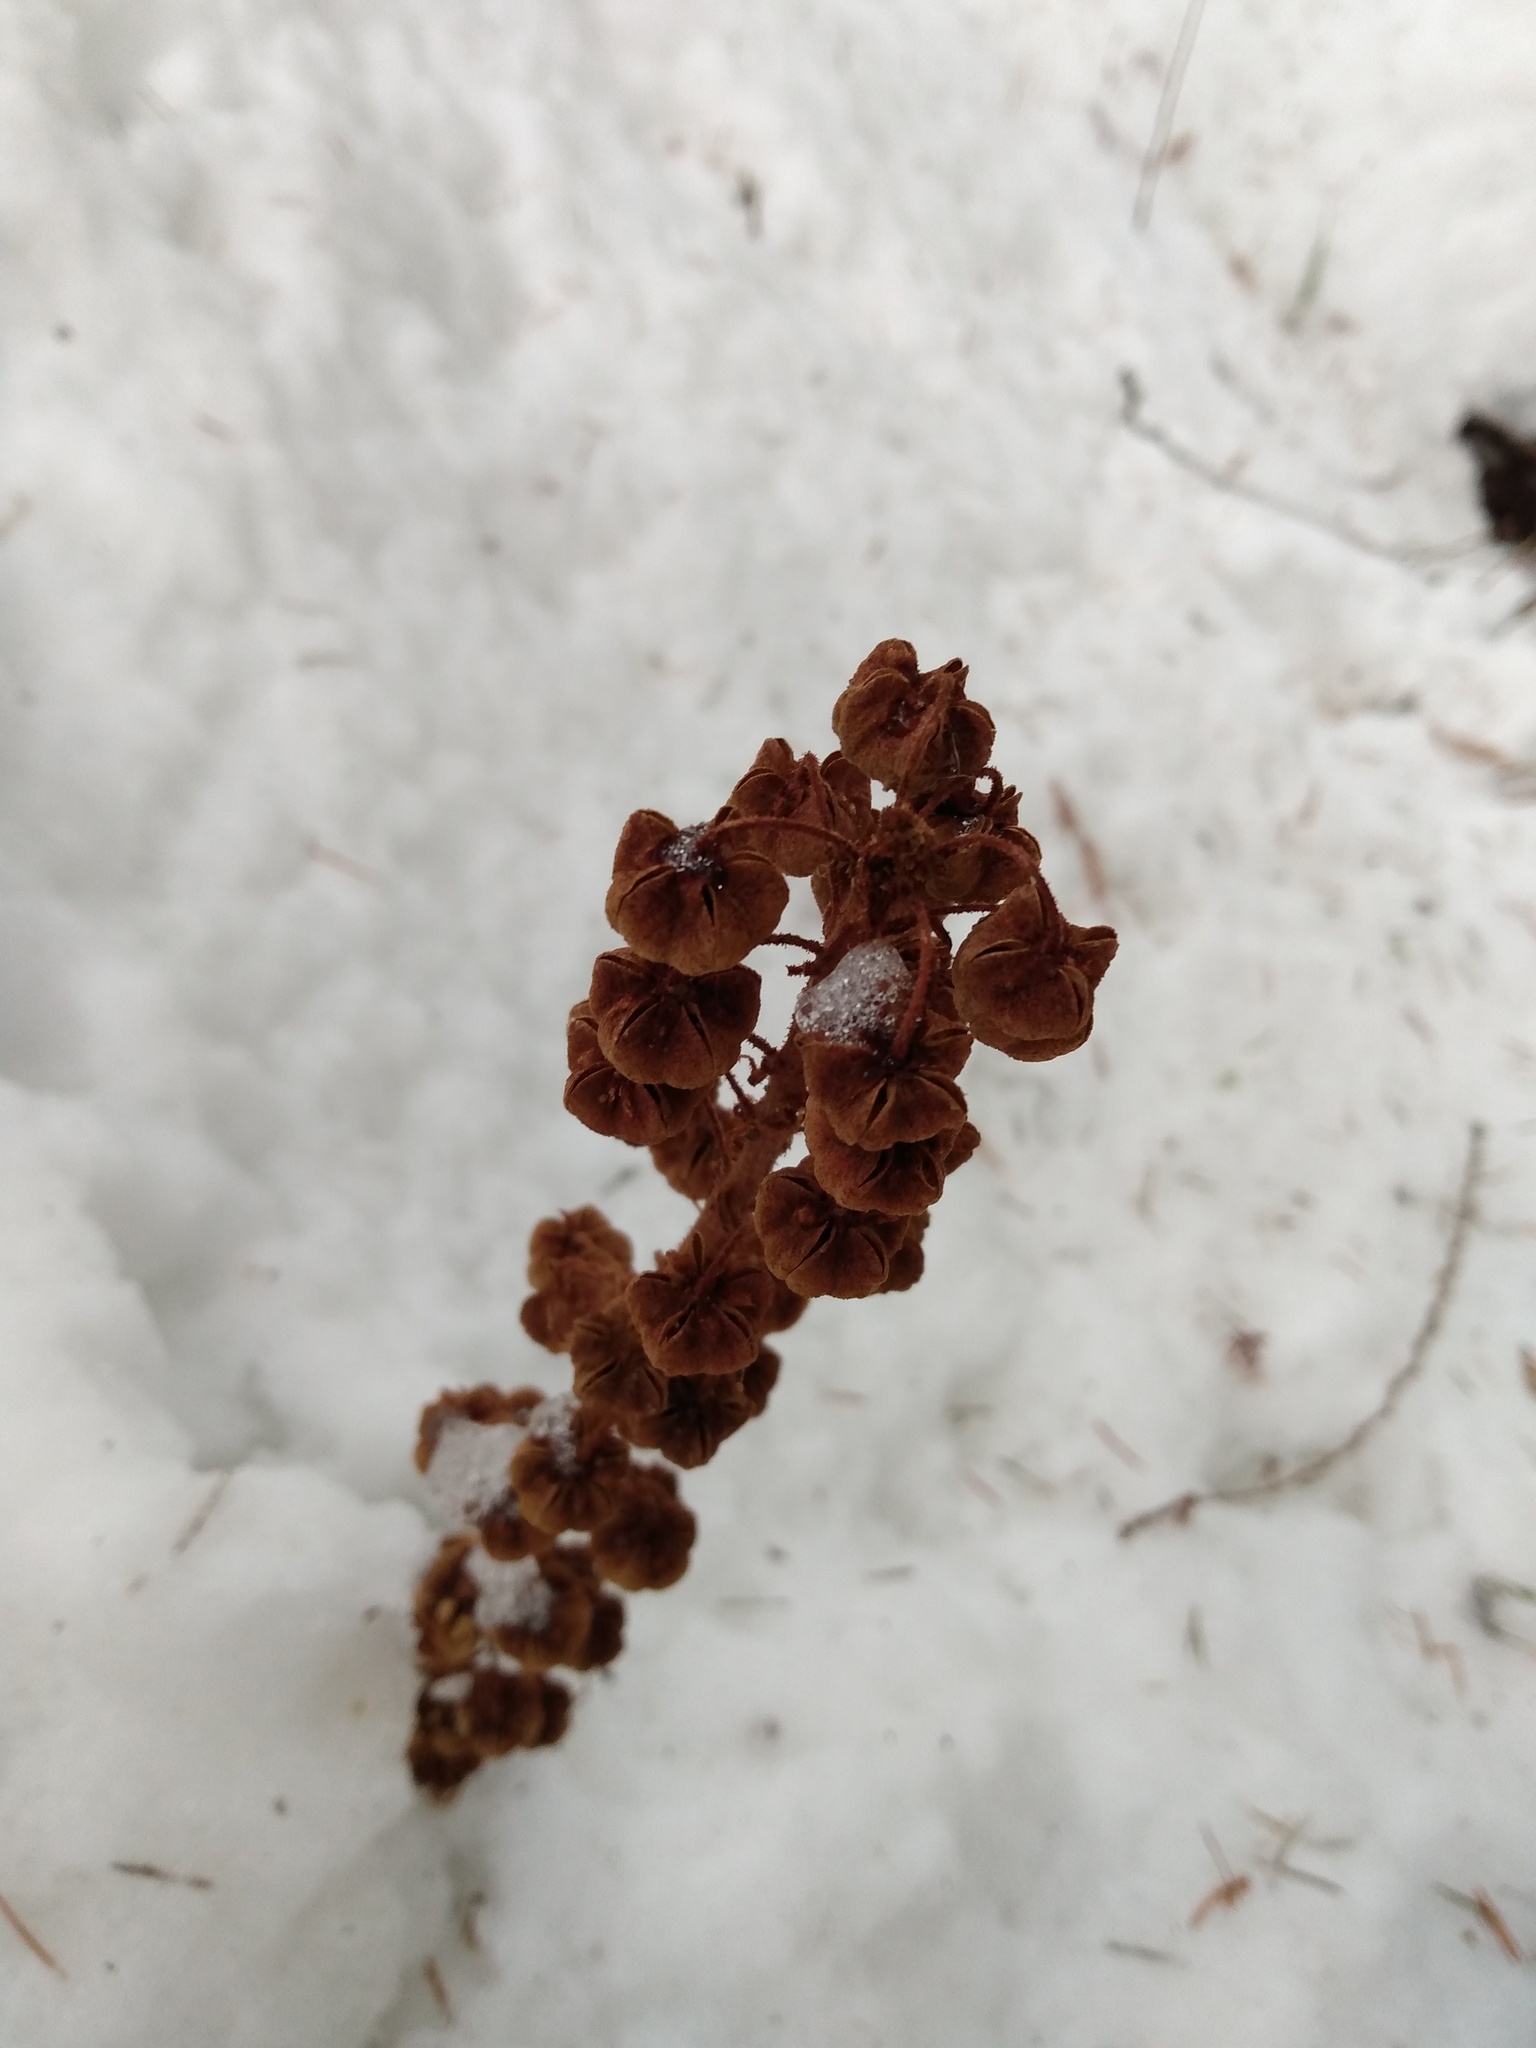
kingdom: Plantae
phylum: Tracheophyta
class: Magnoliopsida
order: Ericales
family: Ericaceae
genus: Pterospora
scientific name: Pterospora andromedea
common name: Giant bird's-nest
